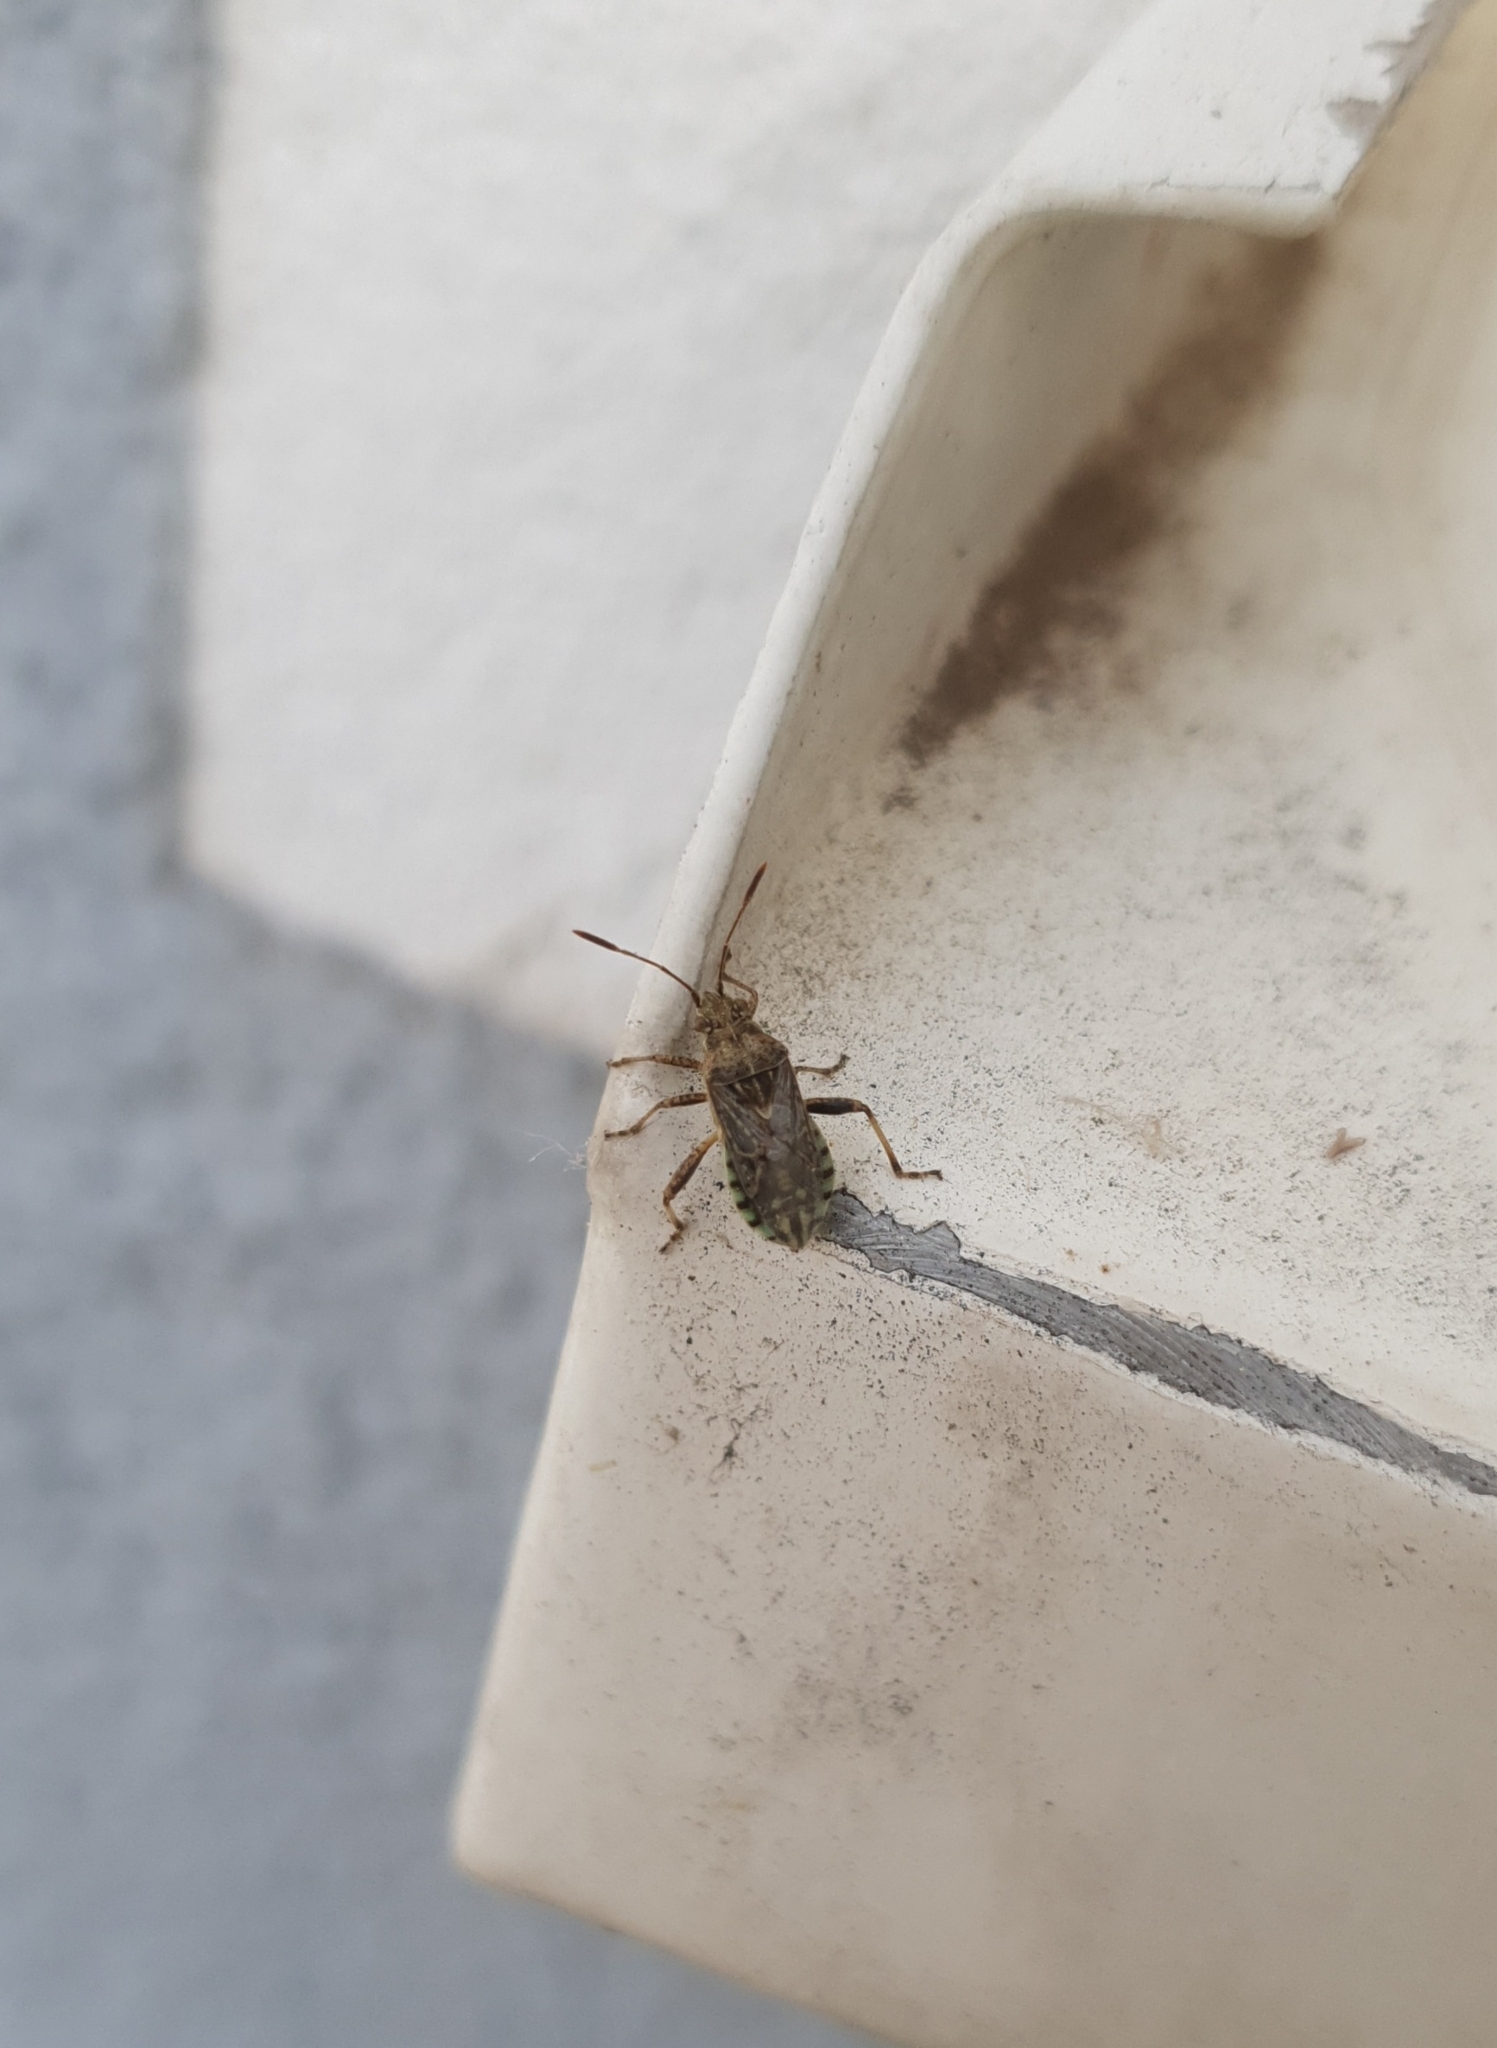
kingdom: Animalia
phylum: Arthropoda
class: Insecta
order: Hemiptera
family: Rhopalidae
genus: Stictopleurus
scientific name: Stictopleurus punctatonervosus
